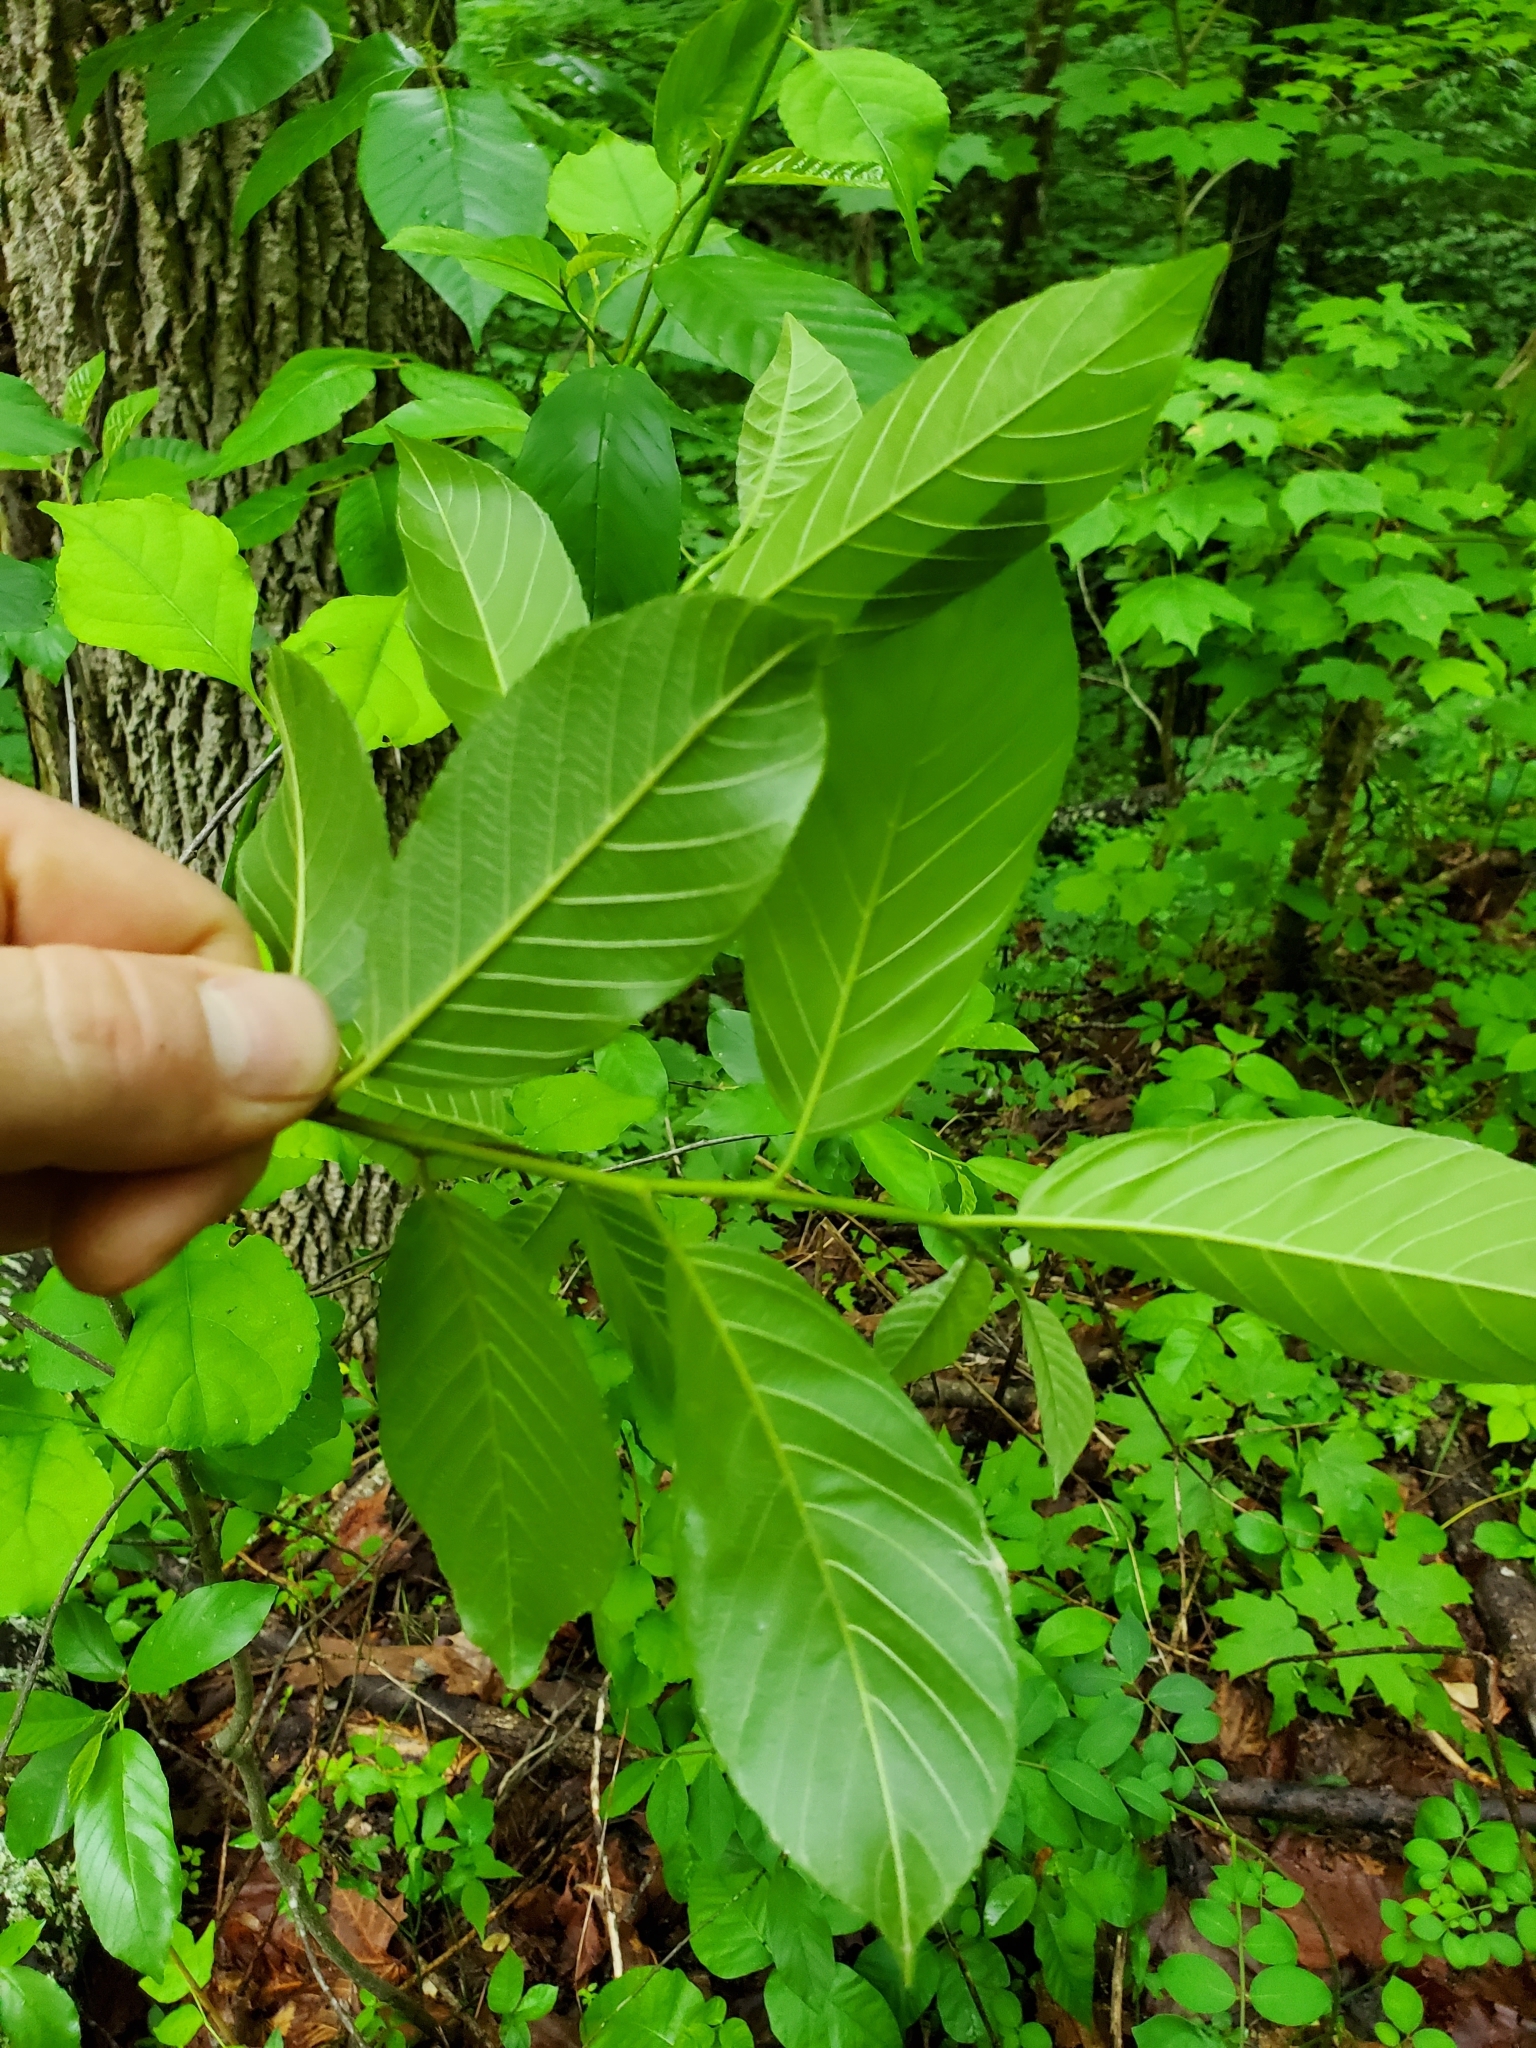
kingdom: Plantae
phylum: Tracheophyta
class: Magnoliopsida
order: Rosales
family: Rhamnaceae
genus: Frangula
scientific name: Frangula caroliniana
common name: Carolina buckthorn
